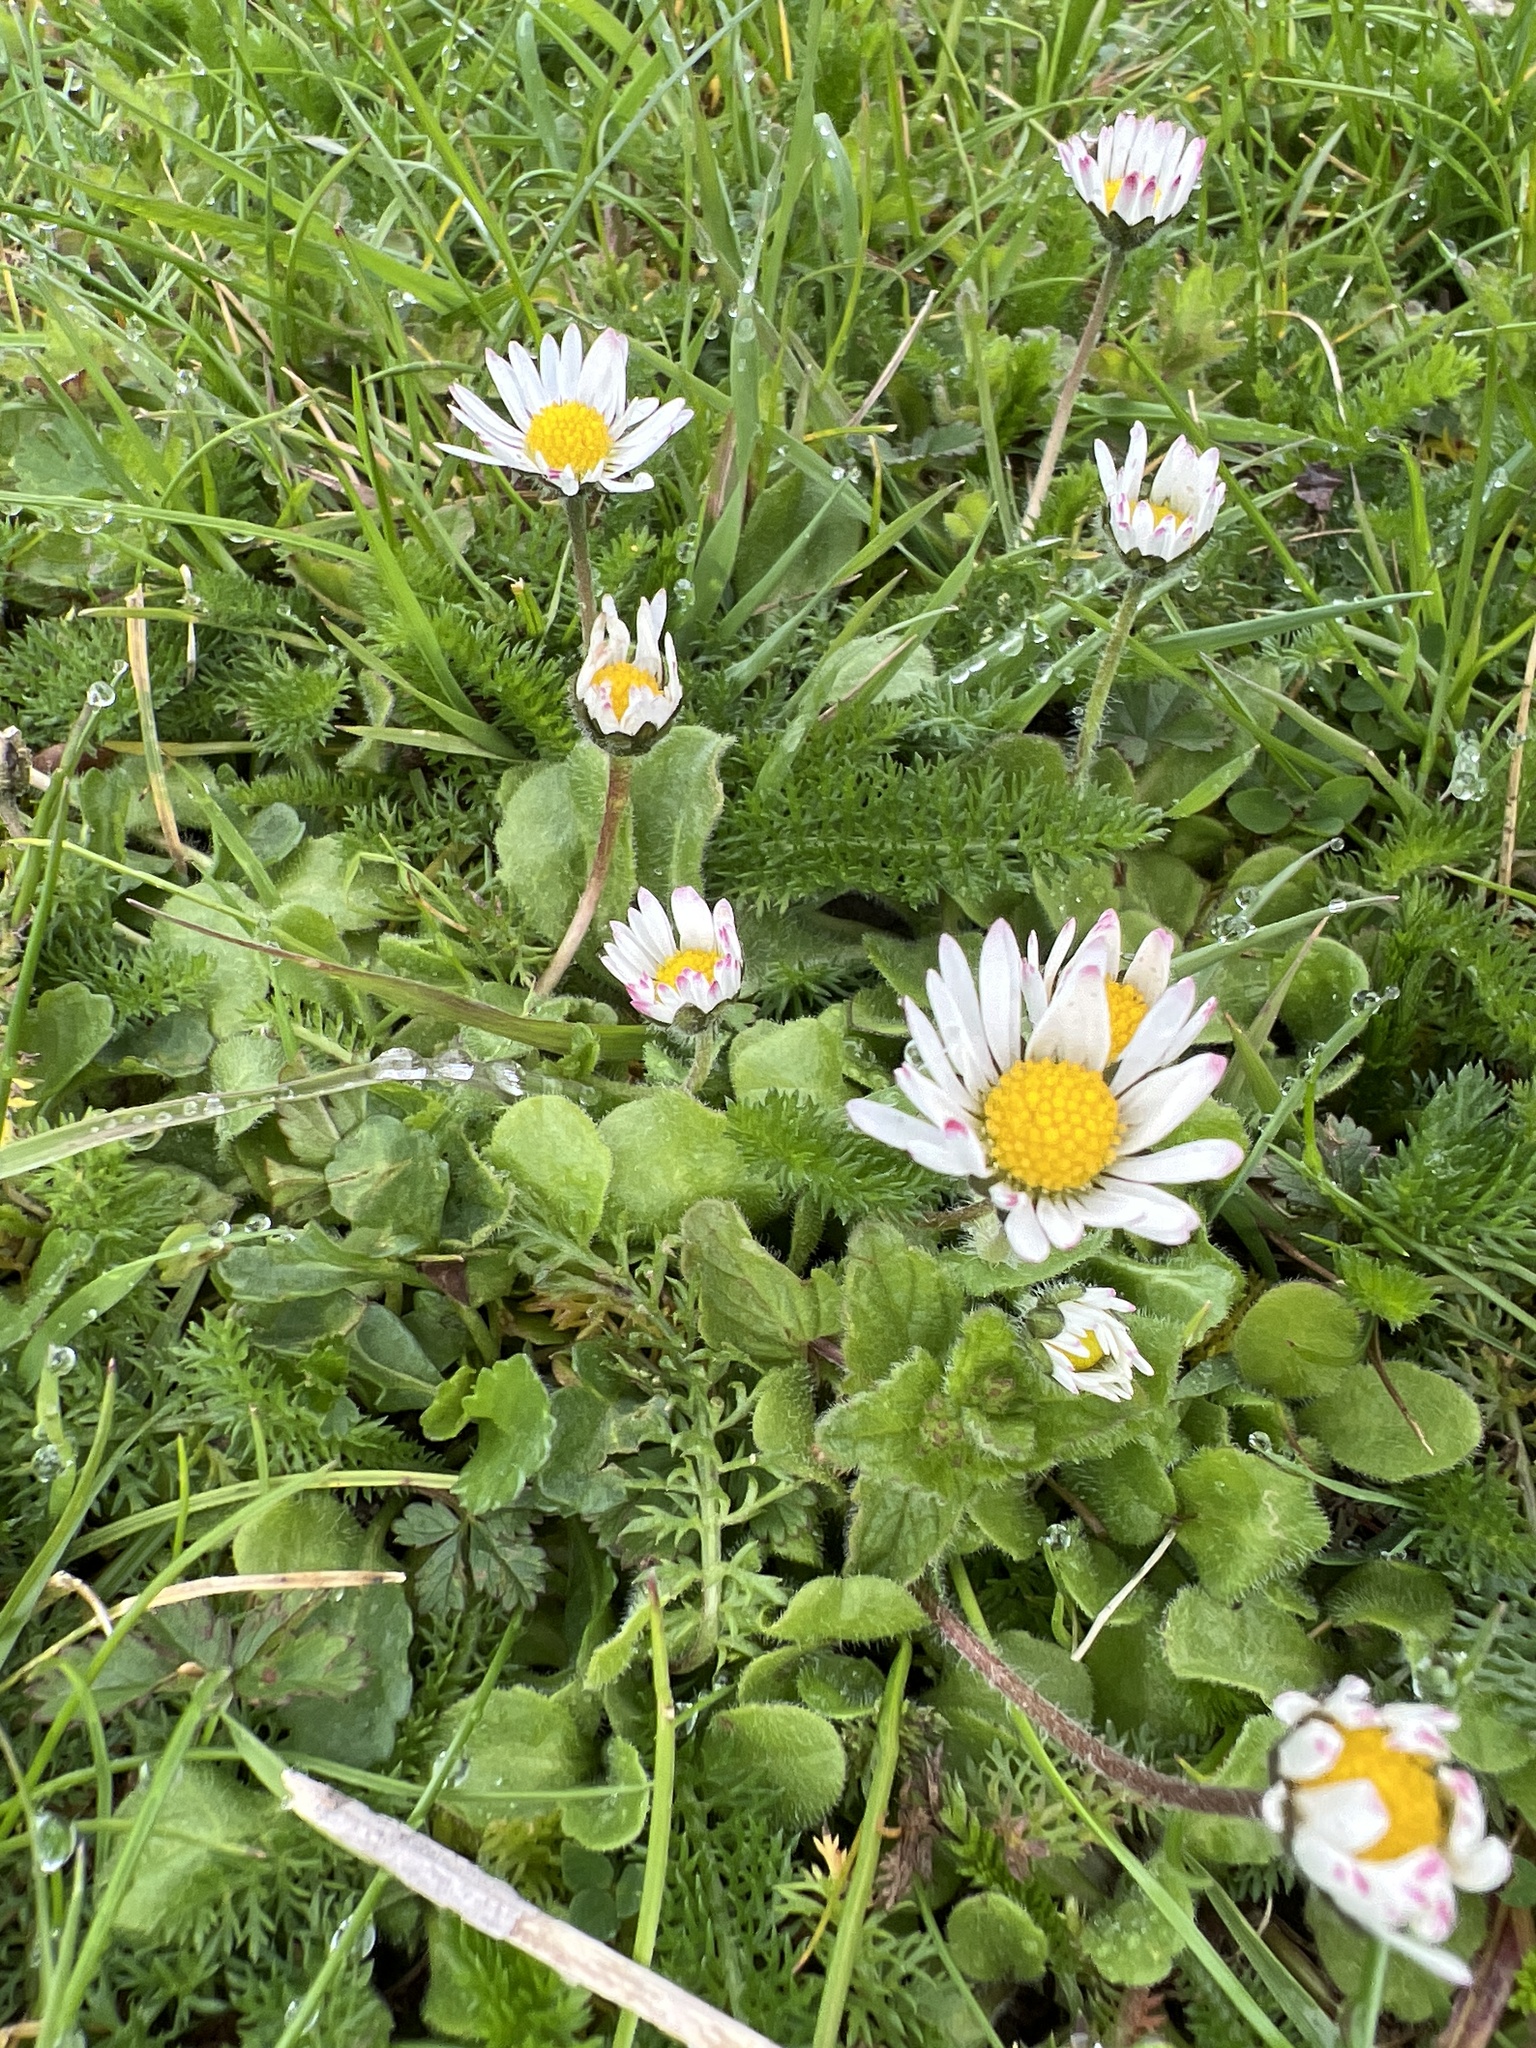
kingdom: Plantae
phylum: Tracheophyta
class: Magnoliopsida
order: Asterales
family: Asteraceae
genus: Bellis
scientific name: Bellis perennis
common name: Lawndaisy
